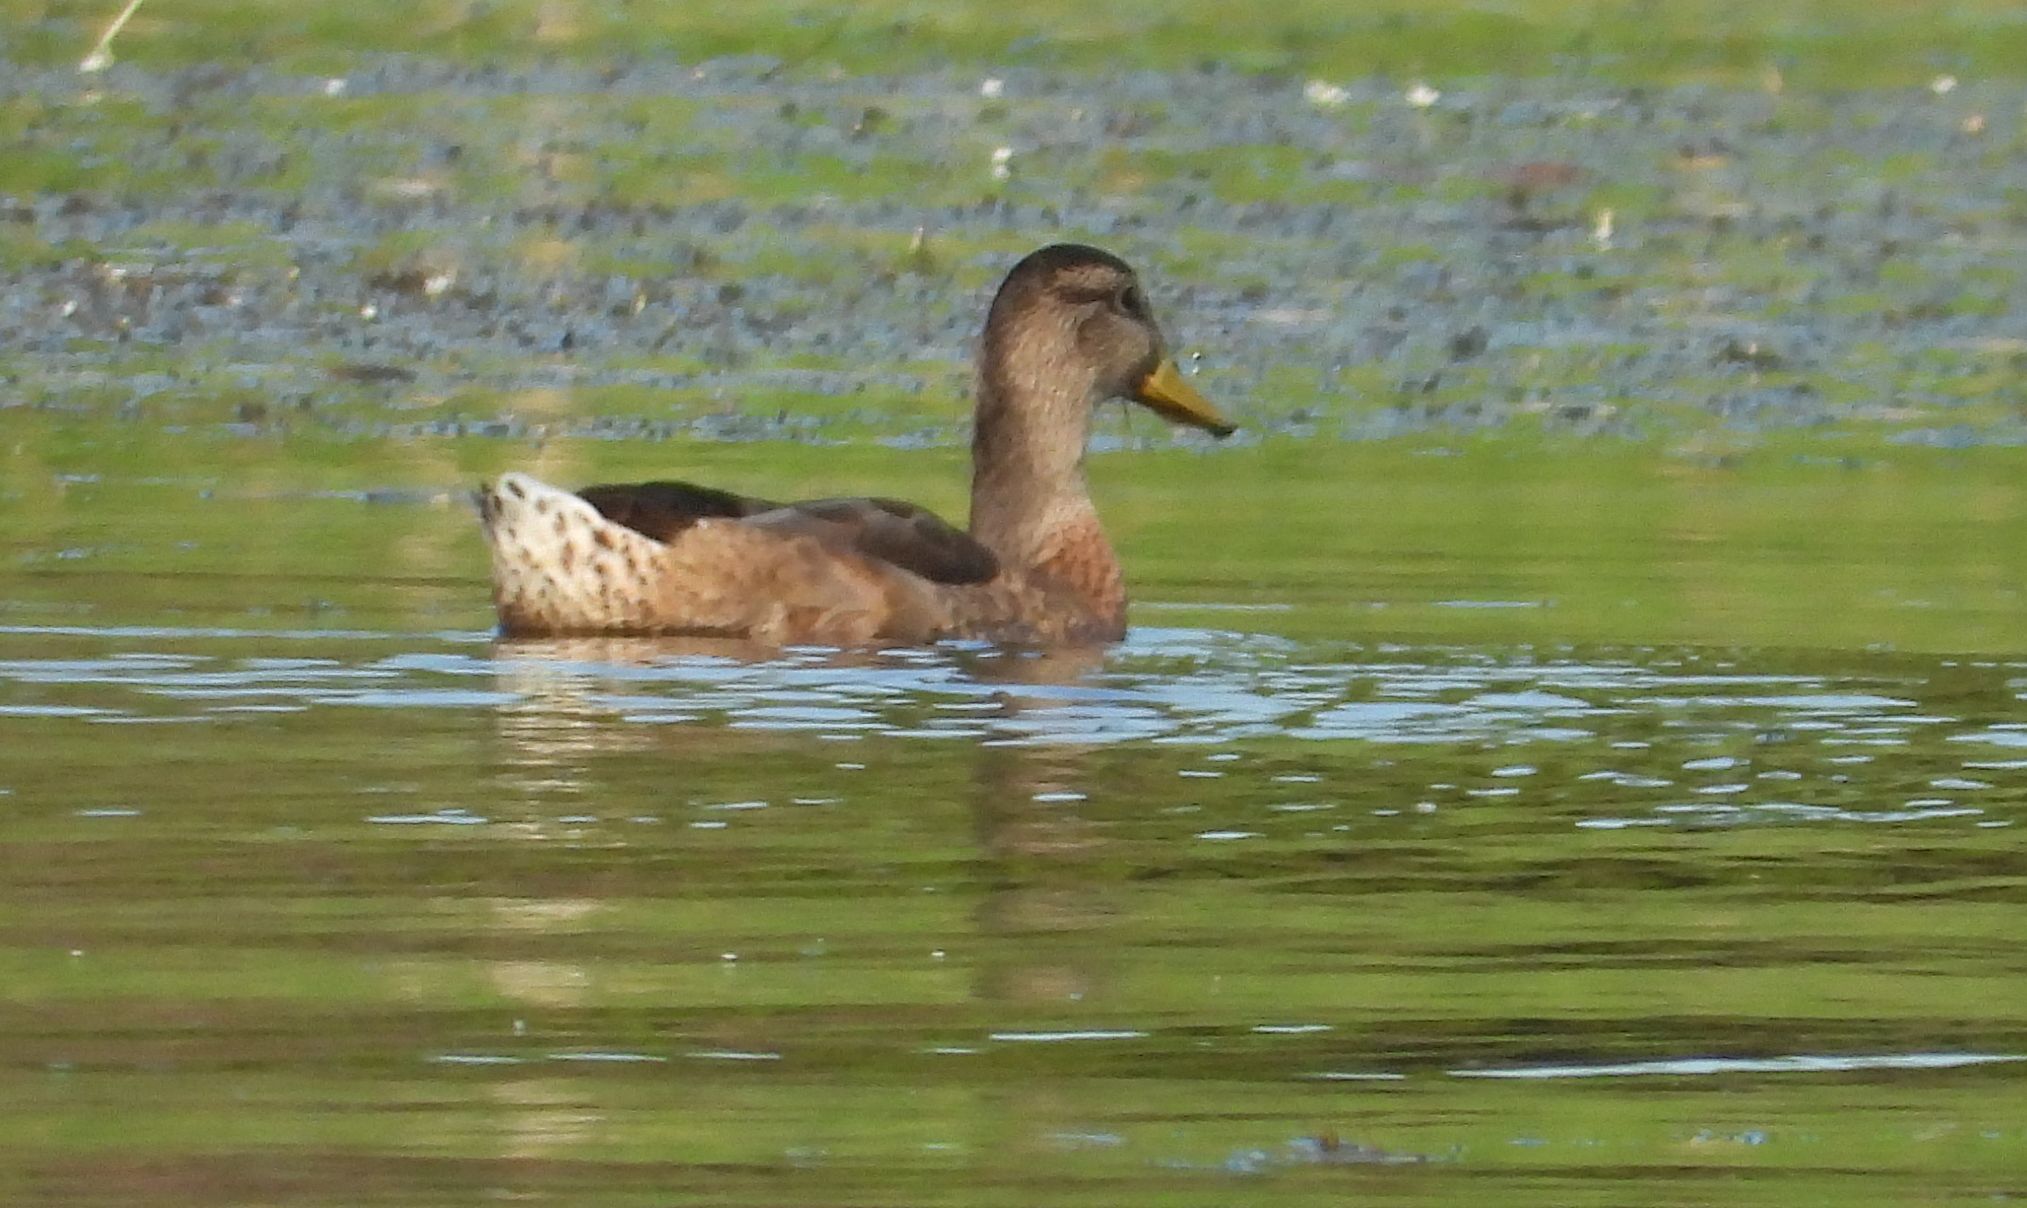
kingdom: Animalia
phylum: Chordata
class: Aves
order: Anseriformes
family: Anatidae
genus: Anas
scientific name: Anas platyrhynchos
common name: Mallard
